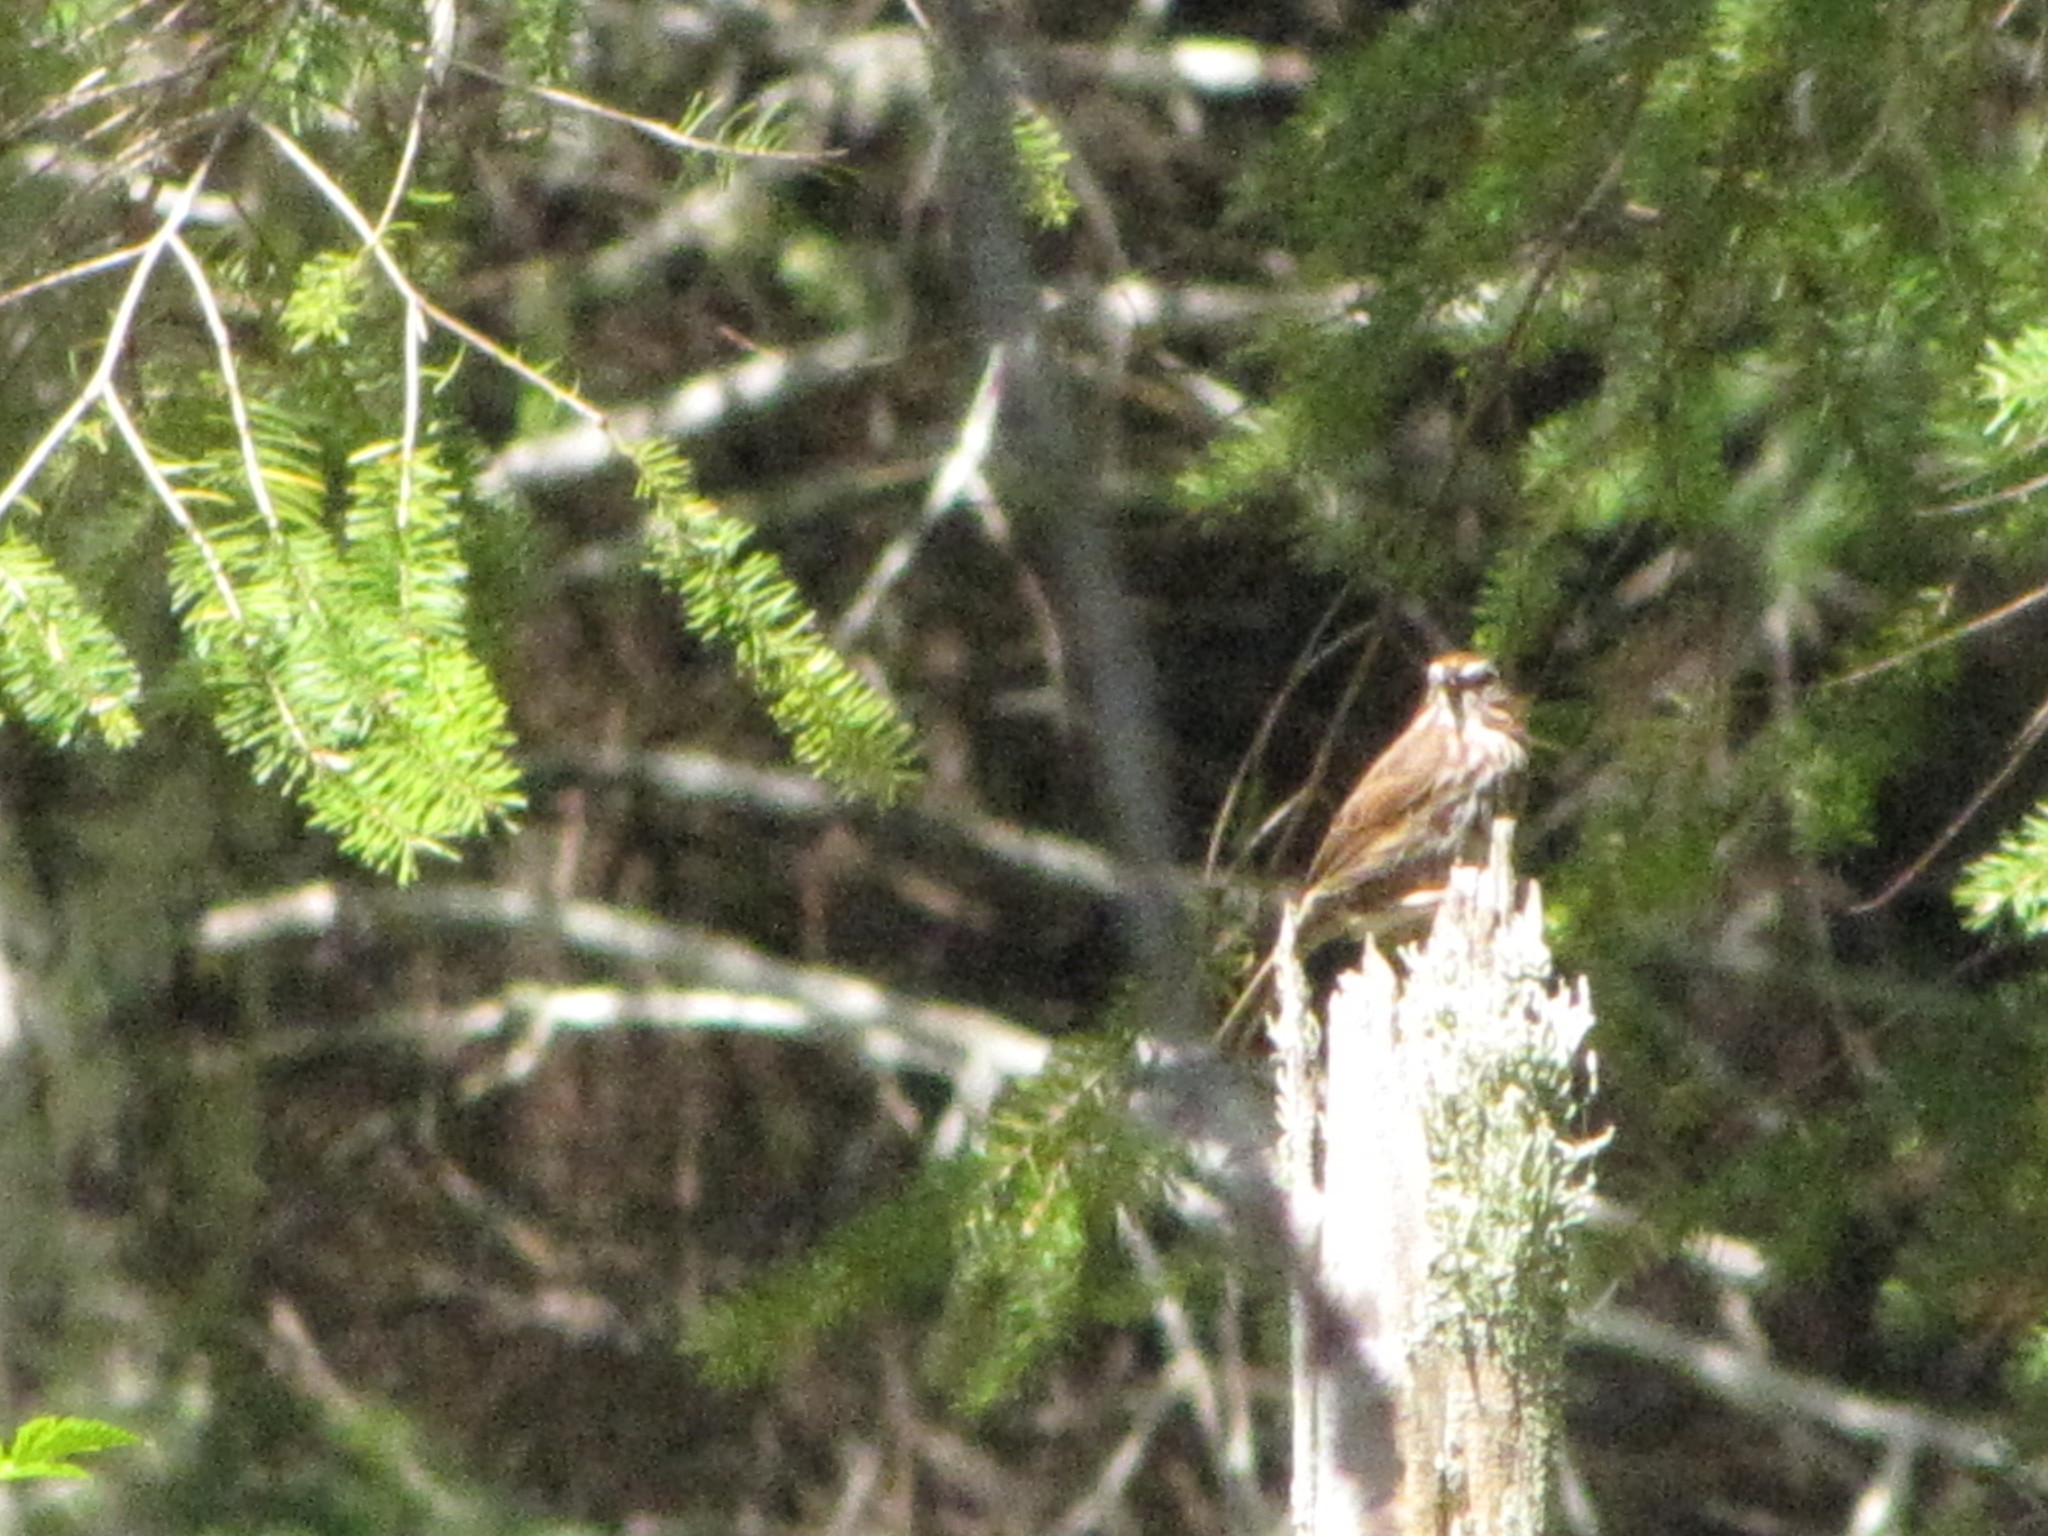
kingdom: Animalia
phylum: Chordata
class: Aves
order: Passeriformes
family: Passerellidae
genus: Melospiza
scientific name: Melospiza melodia
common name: Song sparrow
